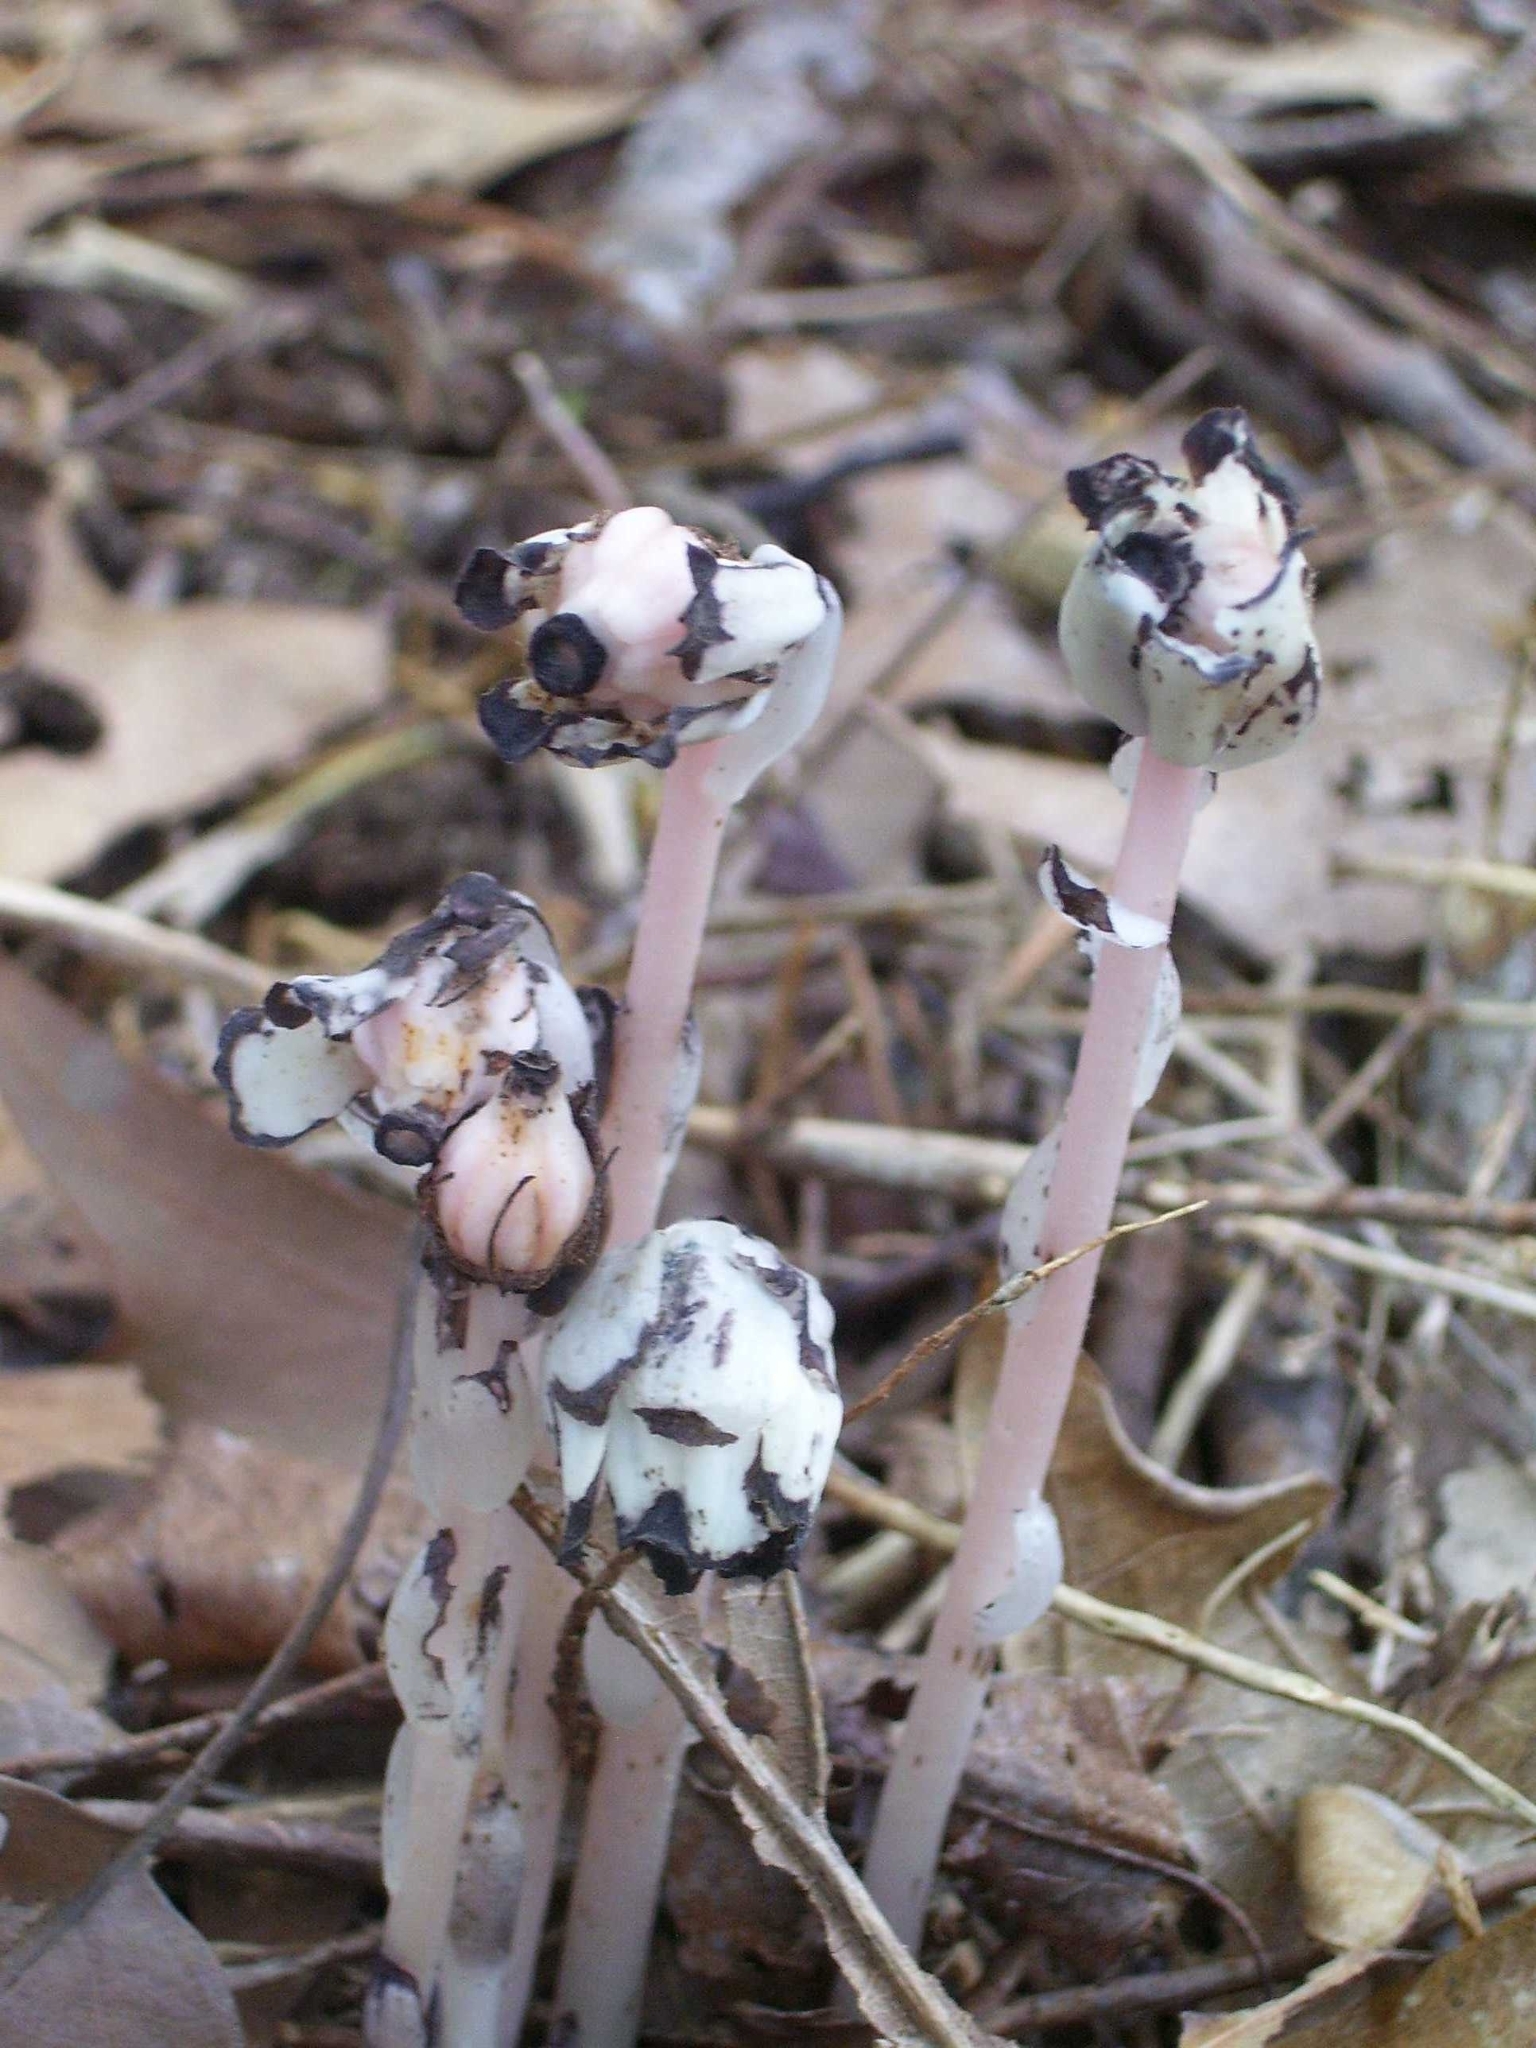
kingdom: Plantae
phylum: Tracheophyta
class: Magnoliopsida
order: Ericales
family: Ericaceae
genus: Monotropa
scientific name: Monotropa uniflora
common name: Convulsion root
